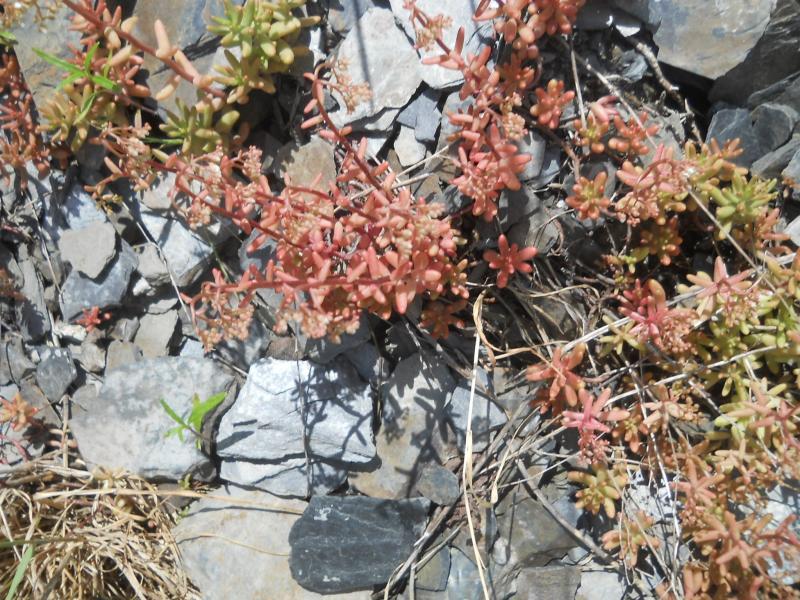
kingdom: Plantae
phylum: Tracheophyta
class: Magnoliopsida
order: Saxifragales
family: Crassulaceae
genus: Sedum
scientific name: Sedum album
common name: White stonecrop
